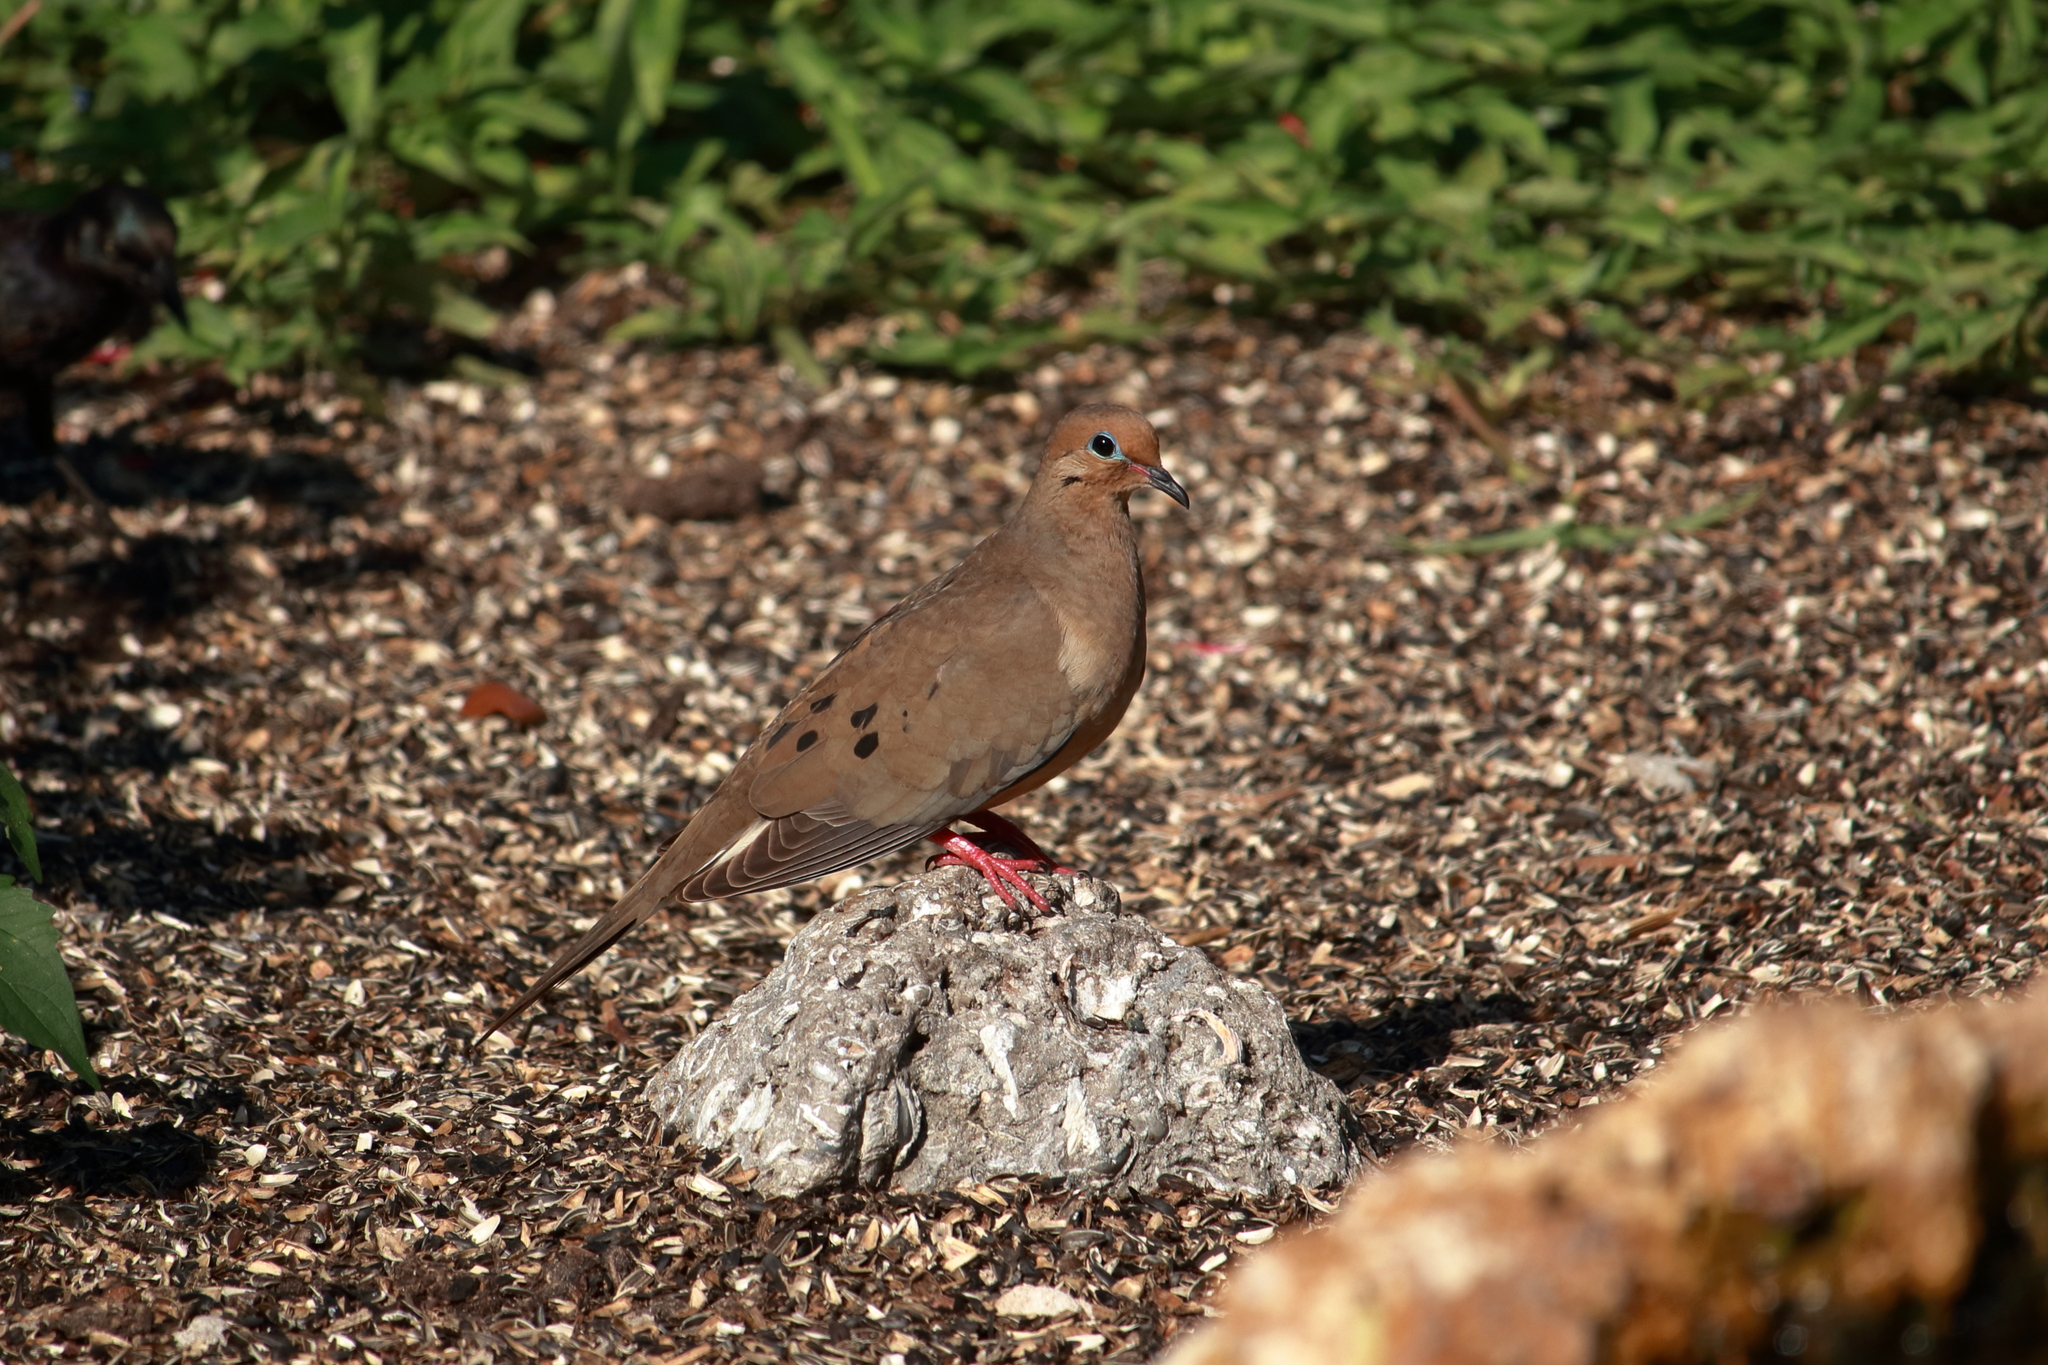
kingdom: Animalia
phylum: Chordata
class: Aves
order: Columbiformes
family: Columbidae
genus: Zenaida
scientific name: Zenaida macroura
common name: Mourning dove
